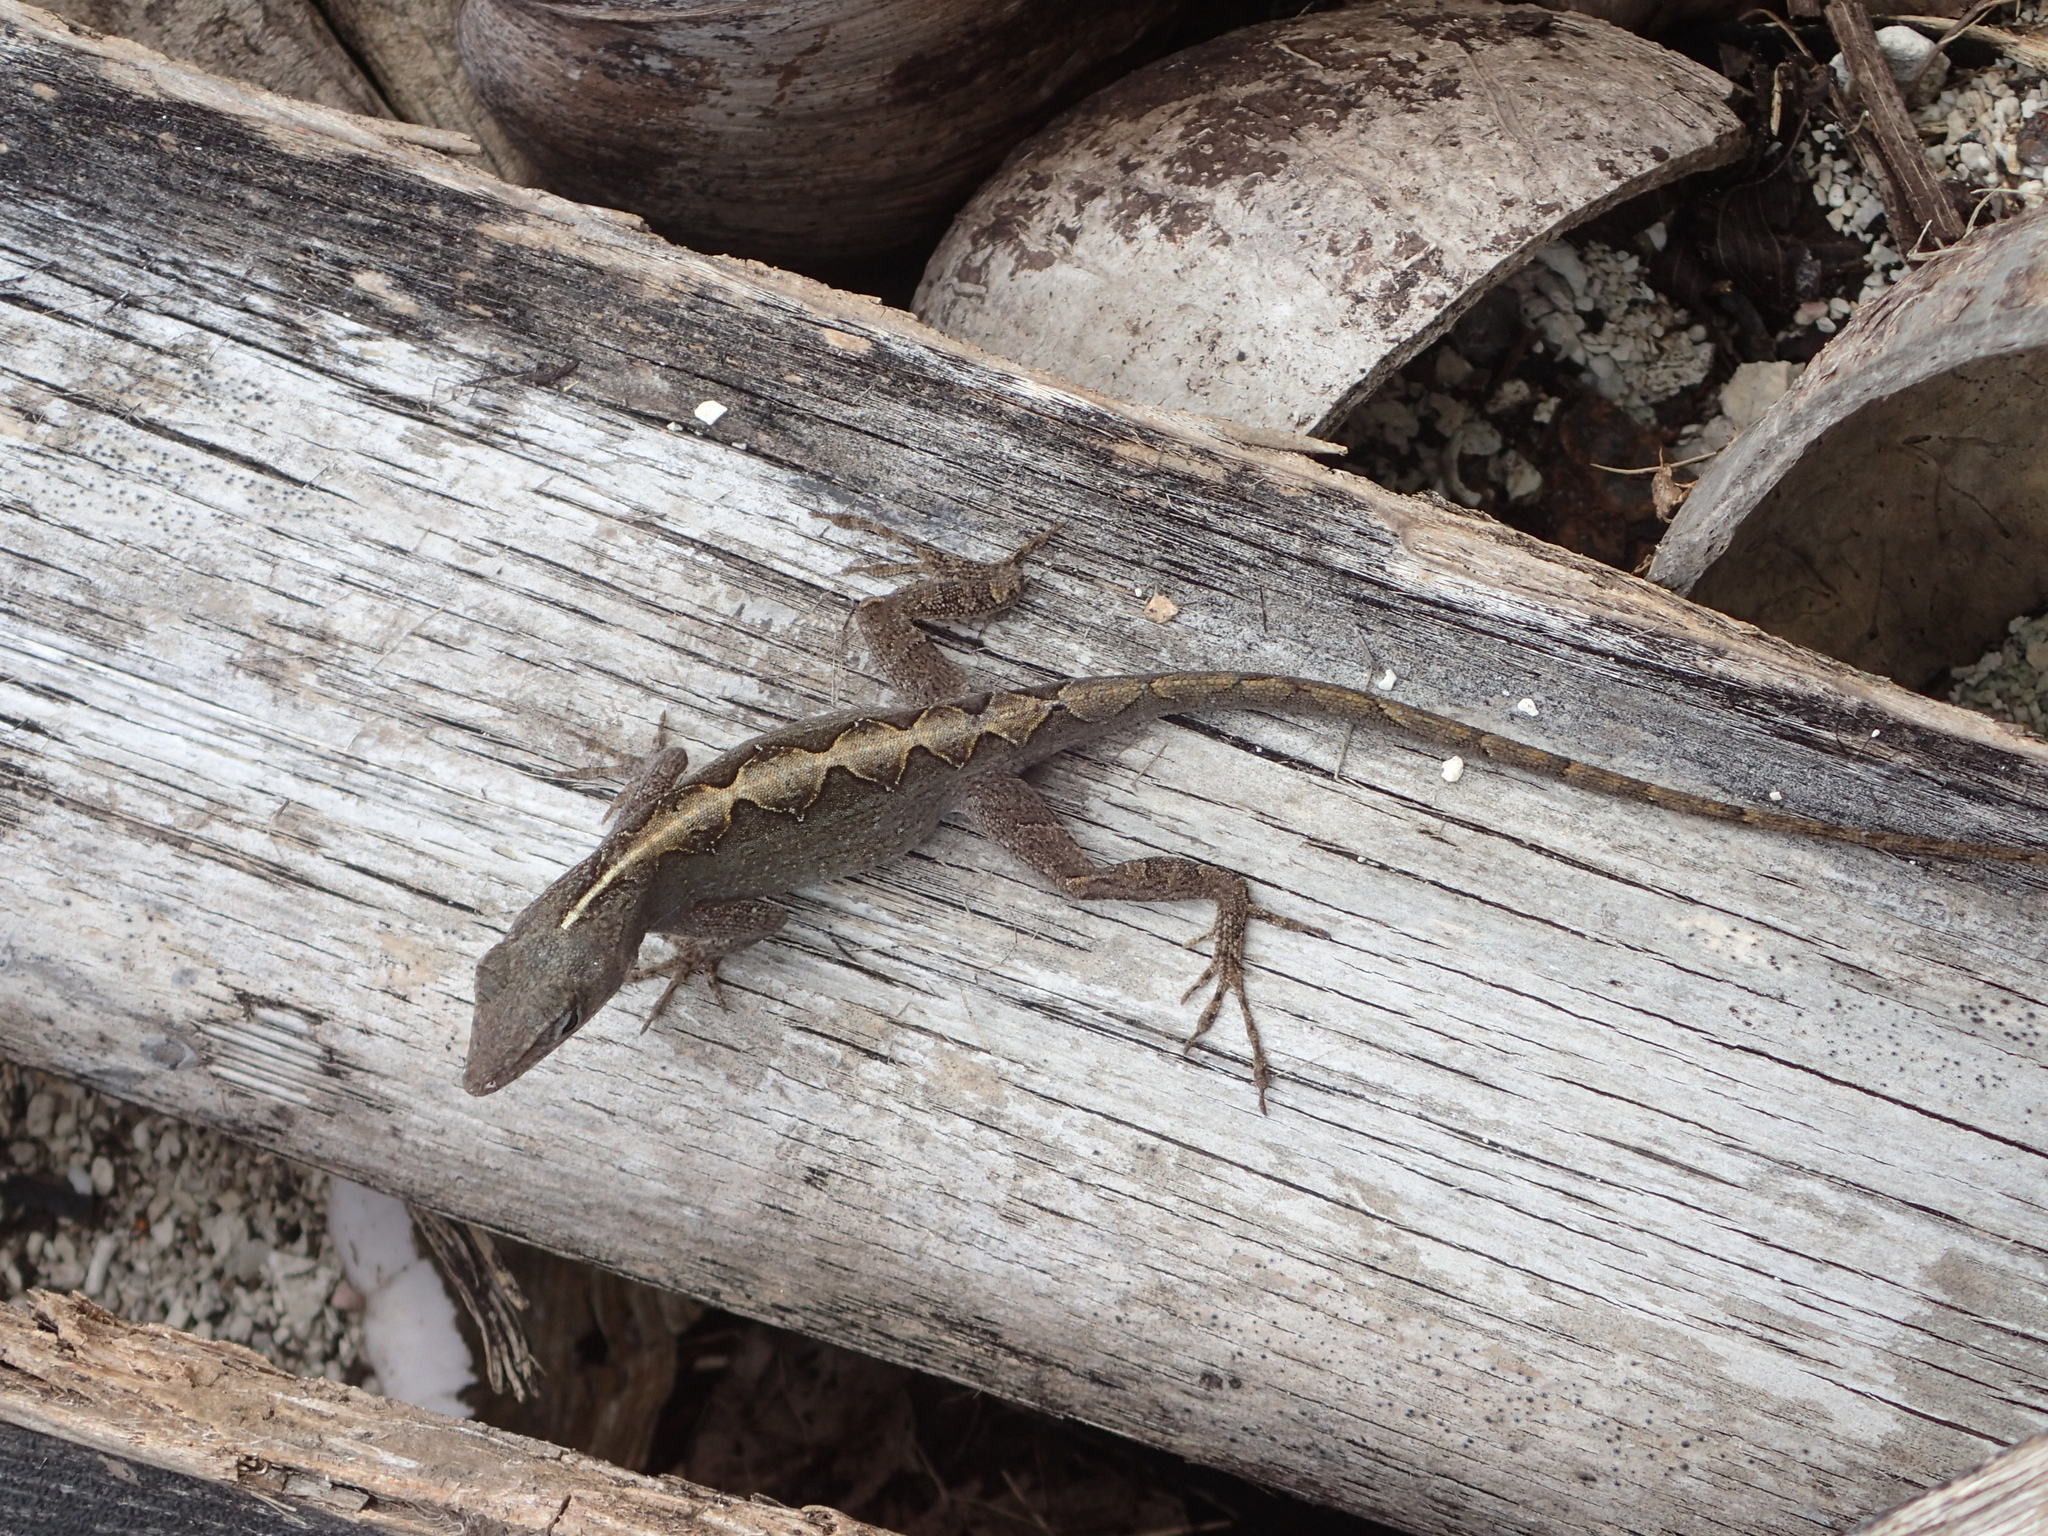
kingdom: Animalia
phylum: Chordata
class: Squamata
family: Dactyloidae
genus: Anolis
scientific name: Anolis sagrei
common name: Brown anole
